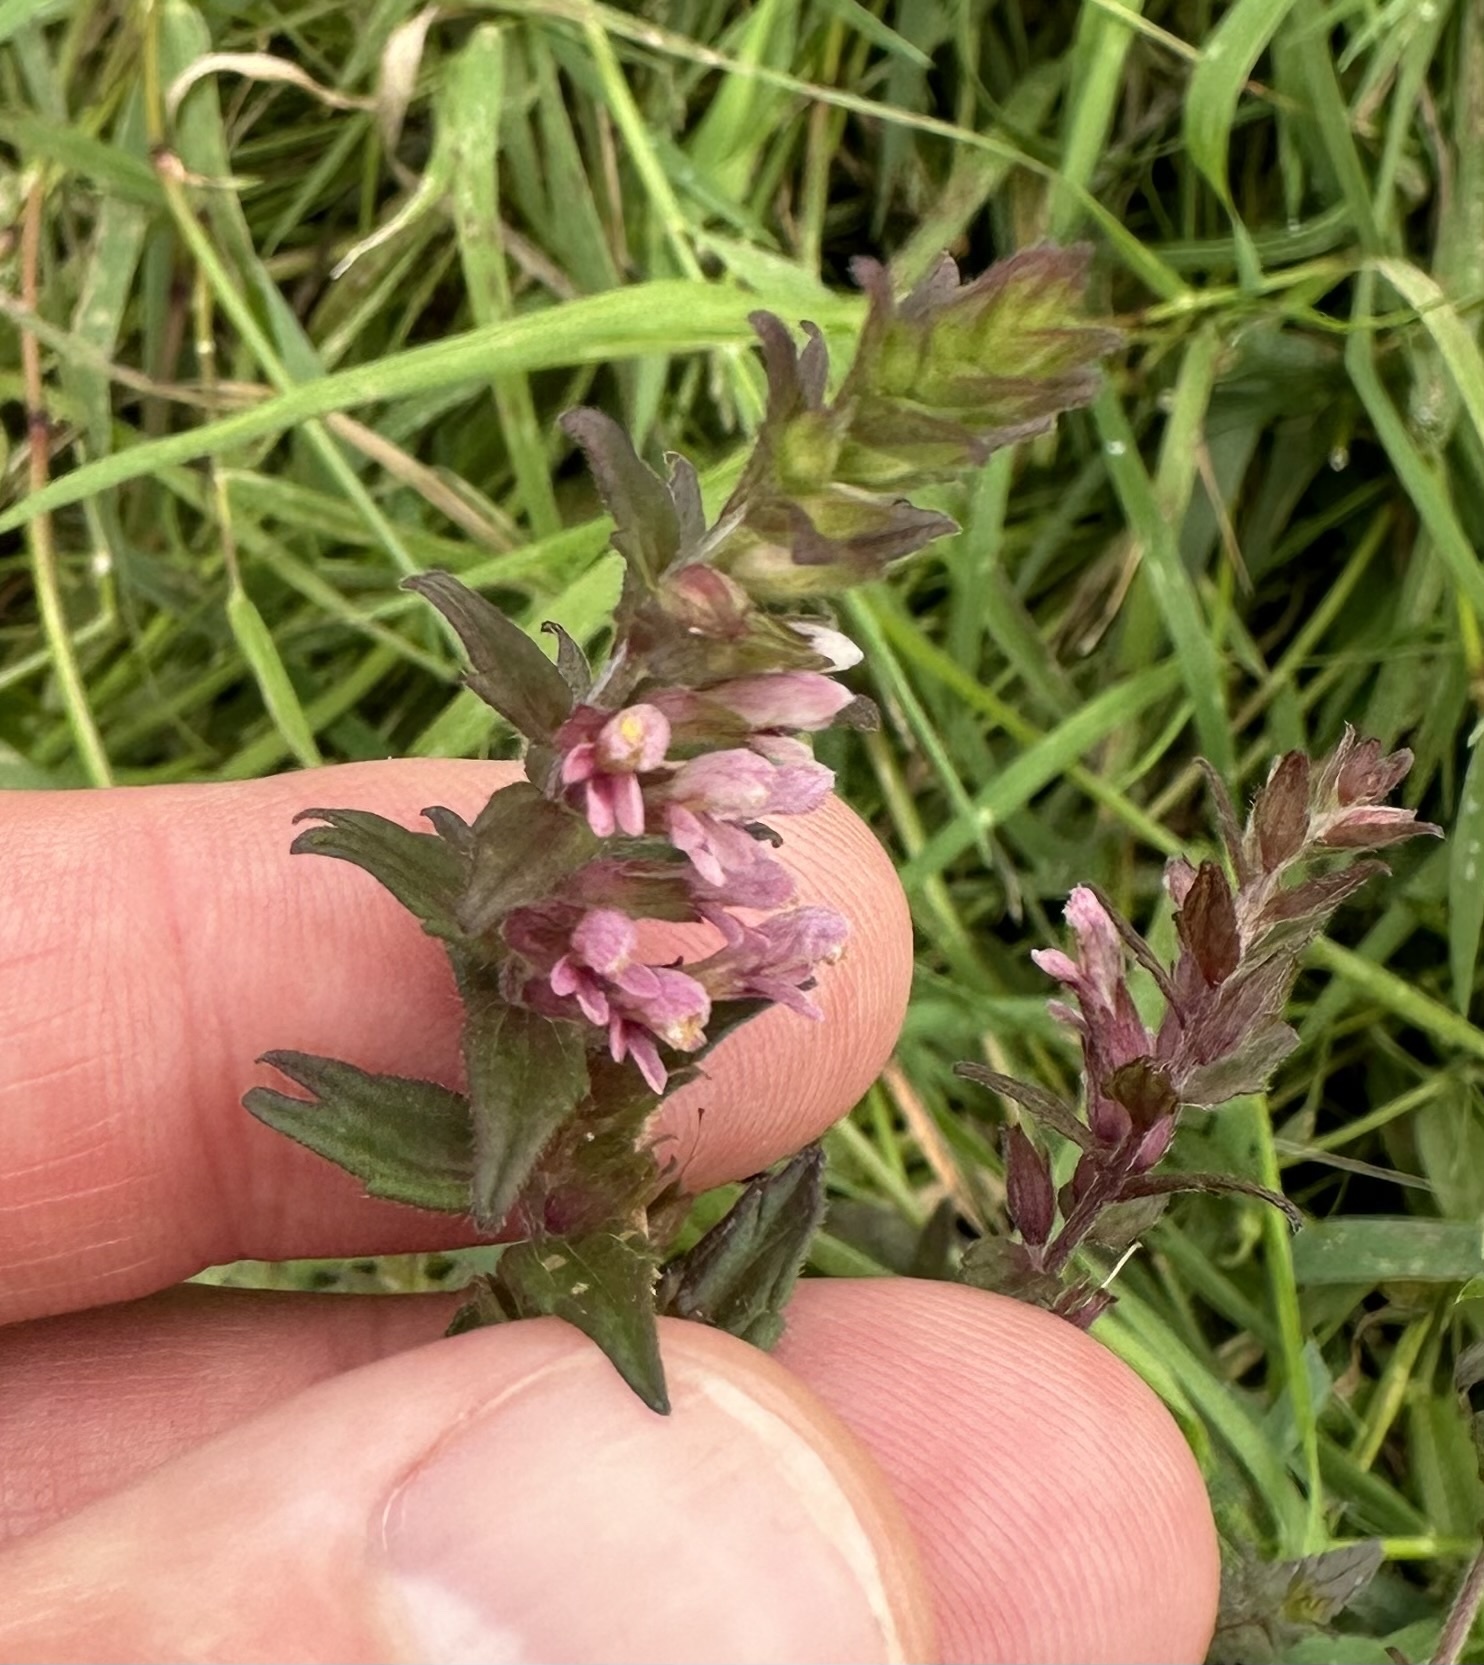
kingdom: Plantae
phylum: Tracheophyta
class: Magnoliopsida
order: Lamiales
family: Orobanchaceae
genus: Odontites
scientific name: Odontites vernus
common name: Red bartsia
